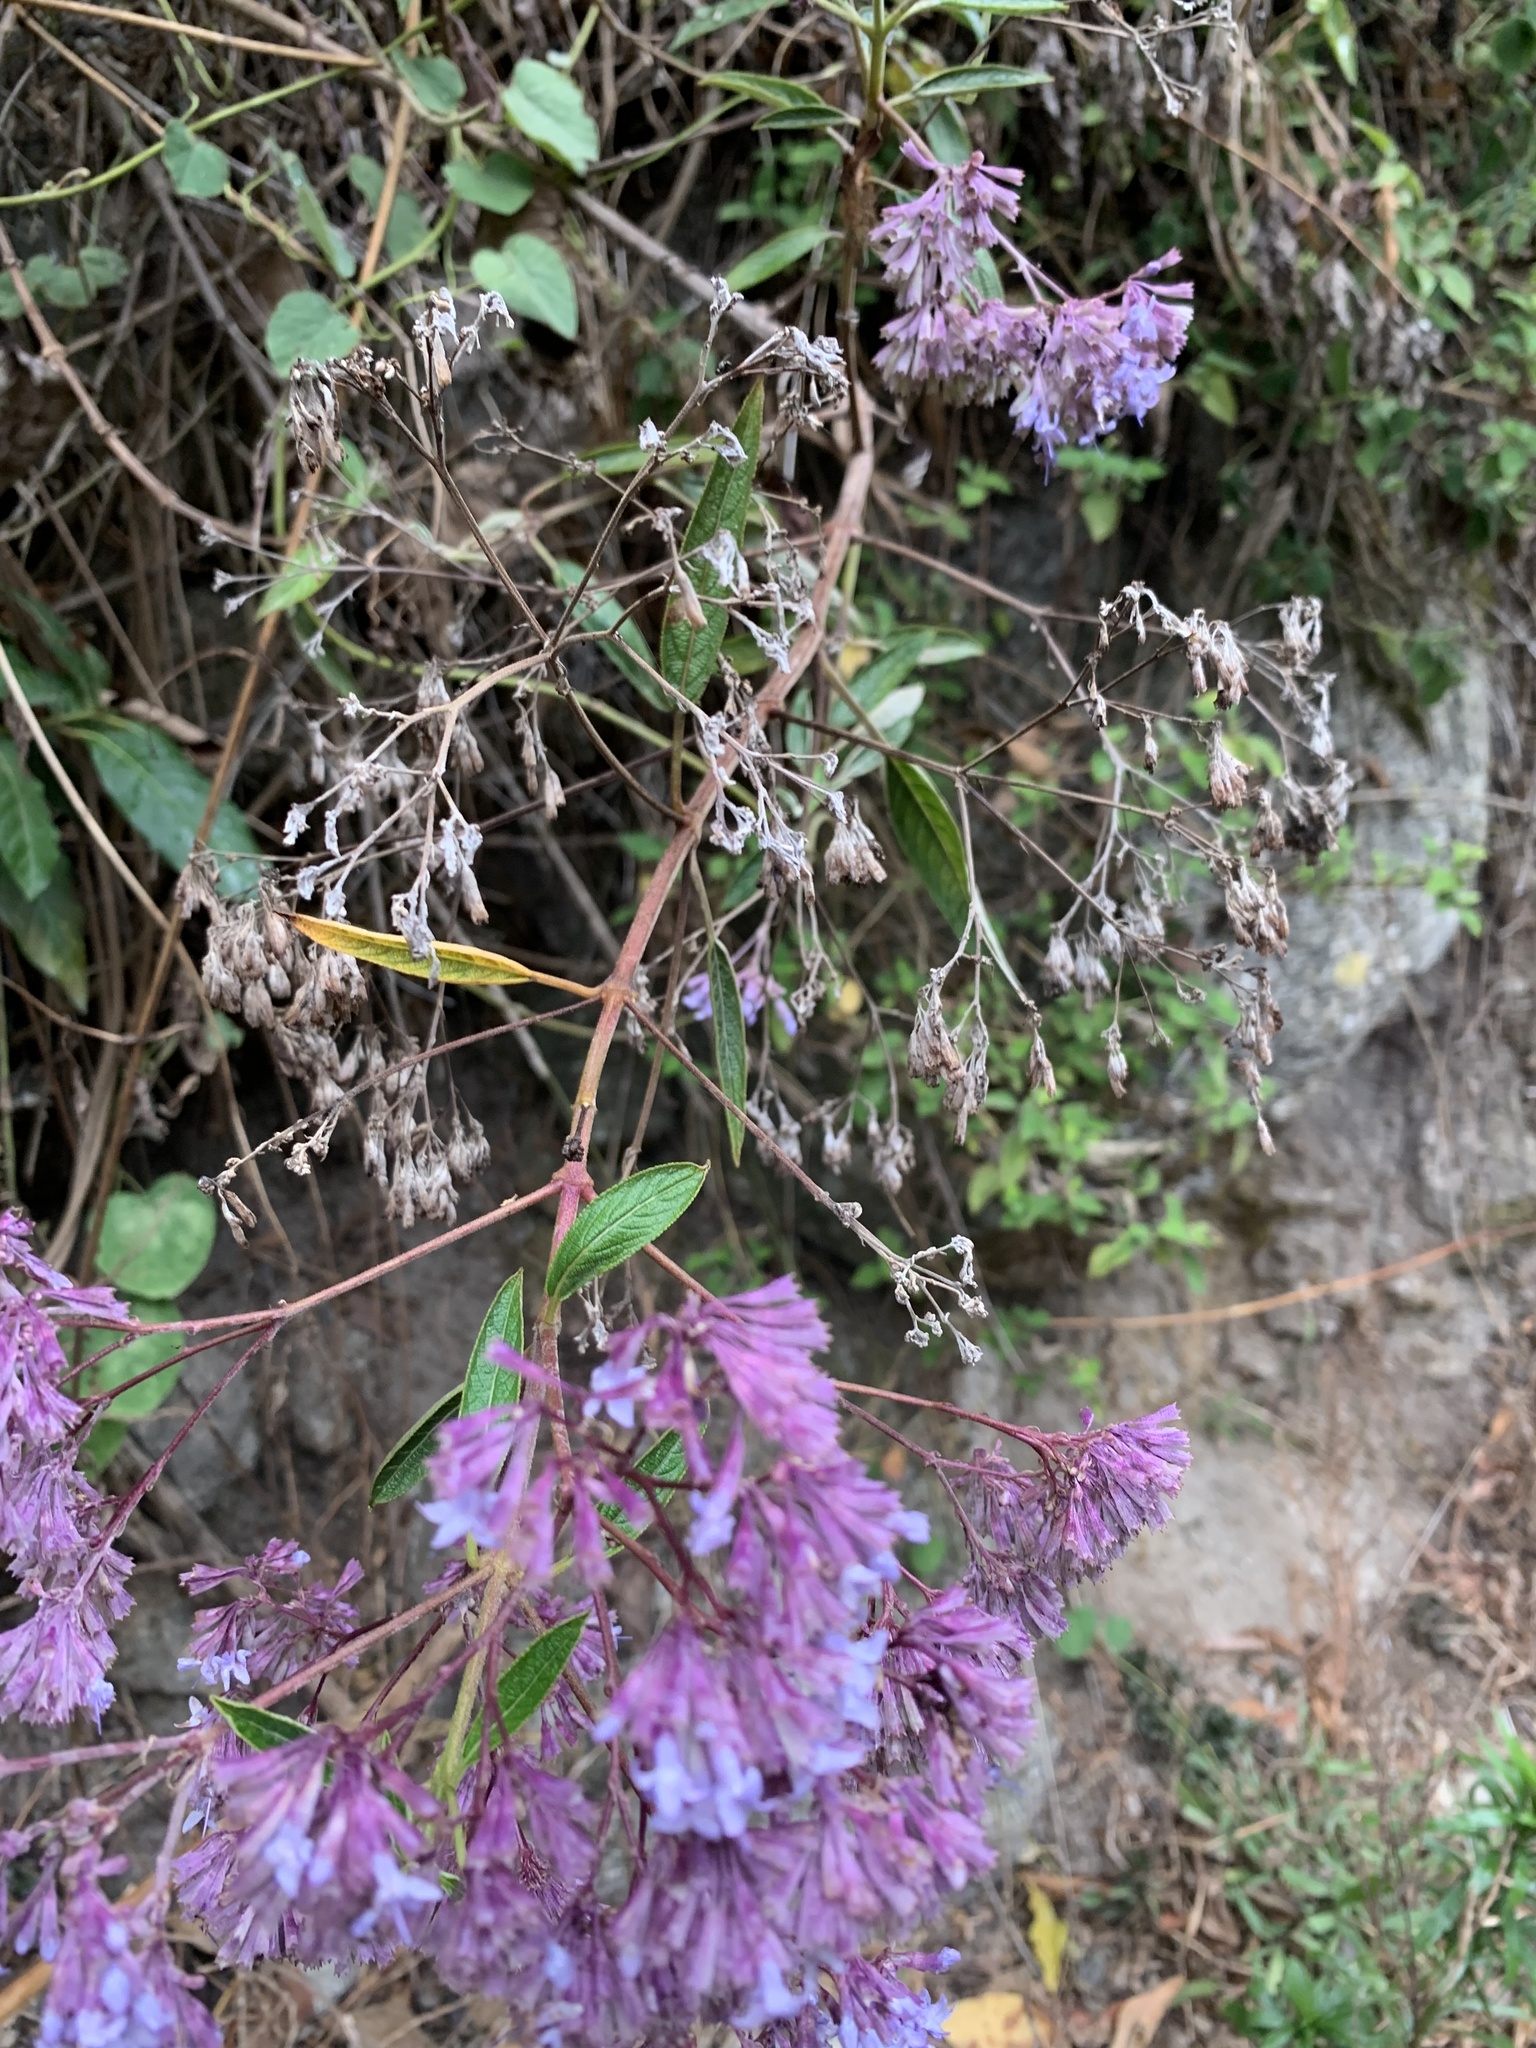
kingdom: Plantae
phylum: Tracheophyta
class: Magnoliopsida
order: Lamiales
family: Lamiaceae
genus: Condea
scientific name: Condea tafallae
